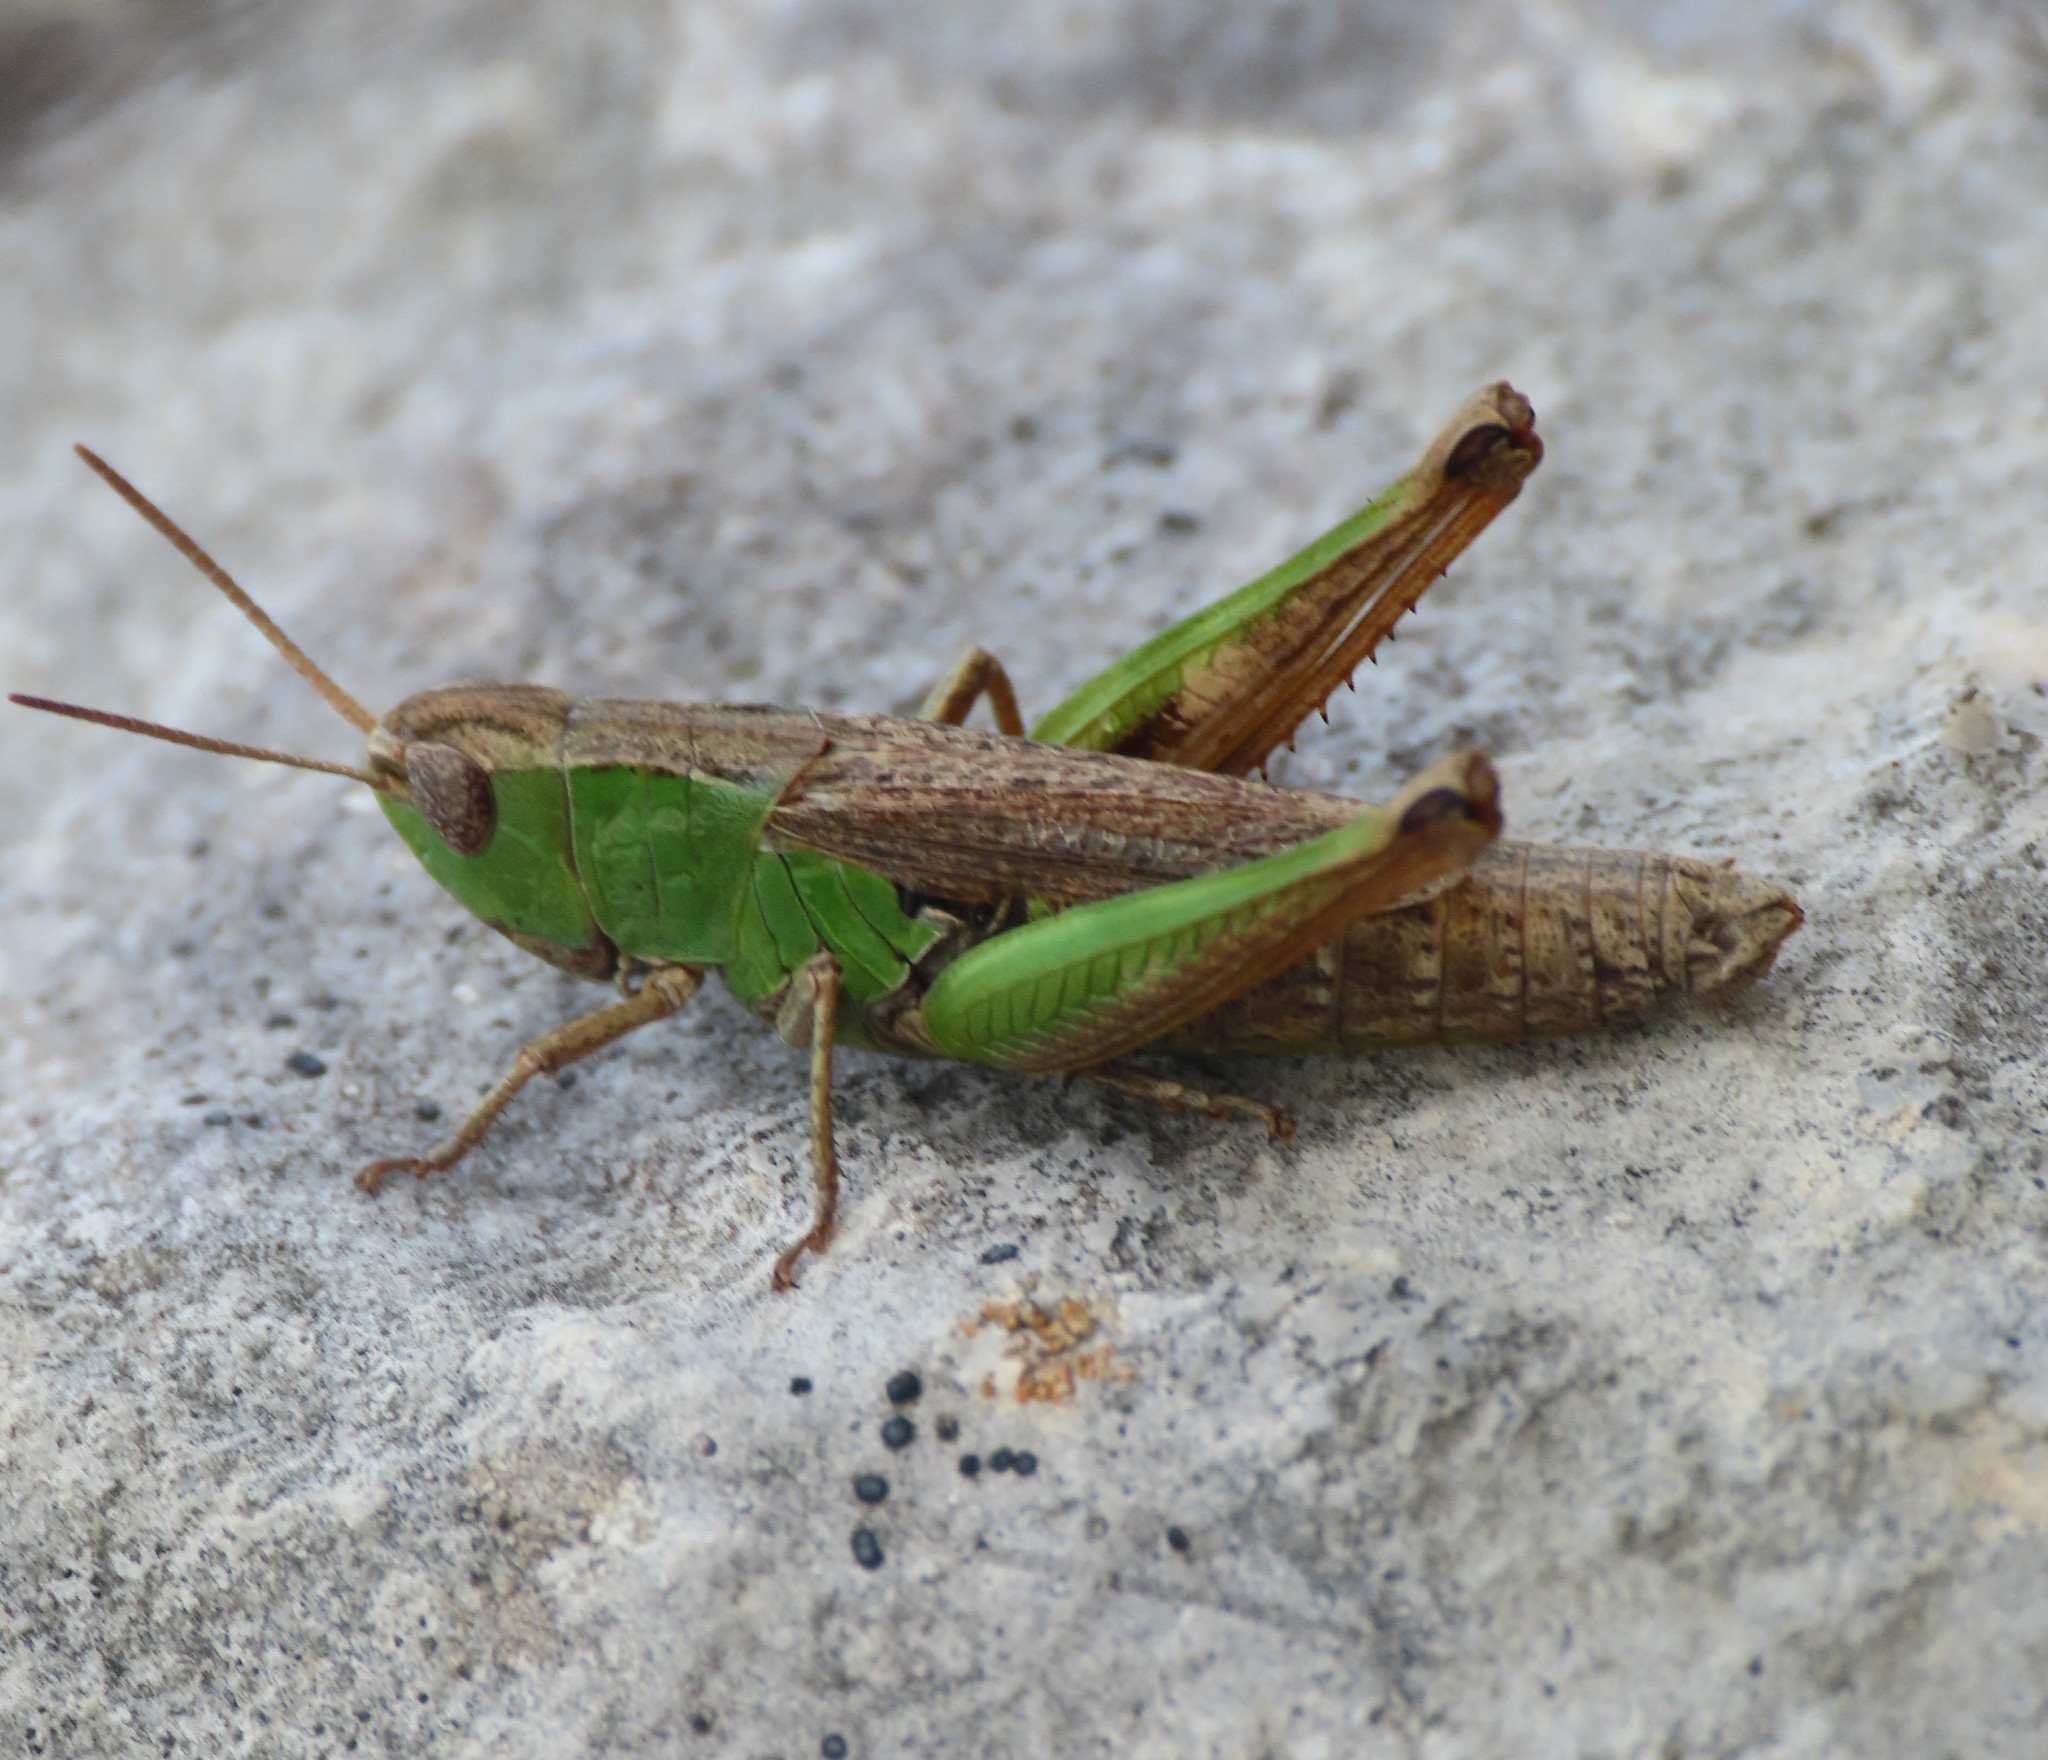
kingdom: Animalia
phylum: Arthropoda
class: Insecta
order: Orthoptera
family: Acrididae
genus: Chorthippus
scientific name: Chorthippus dorsatus
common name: Steppe grasshopper
